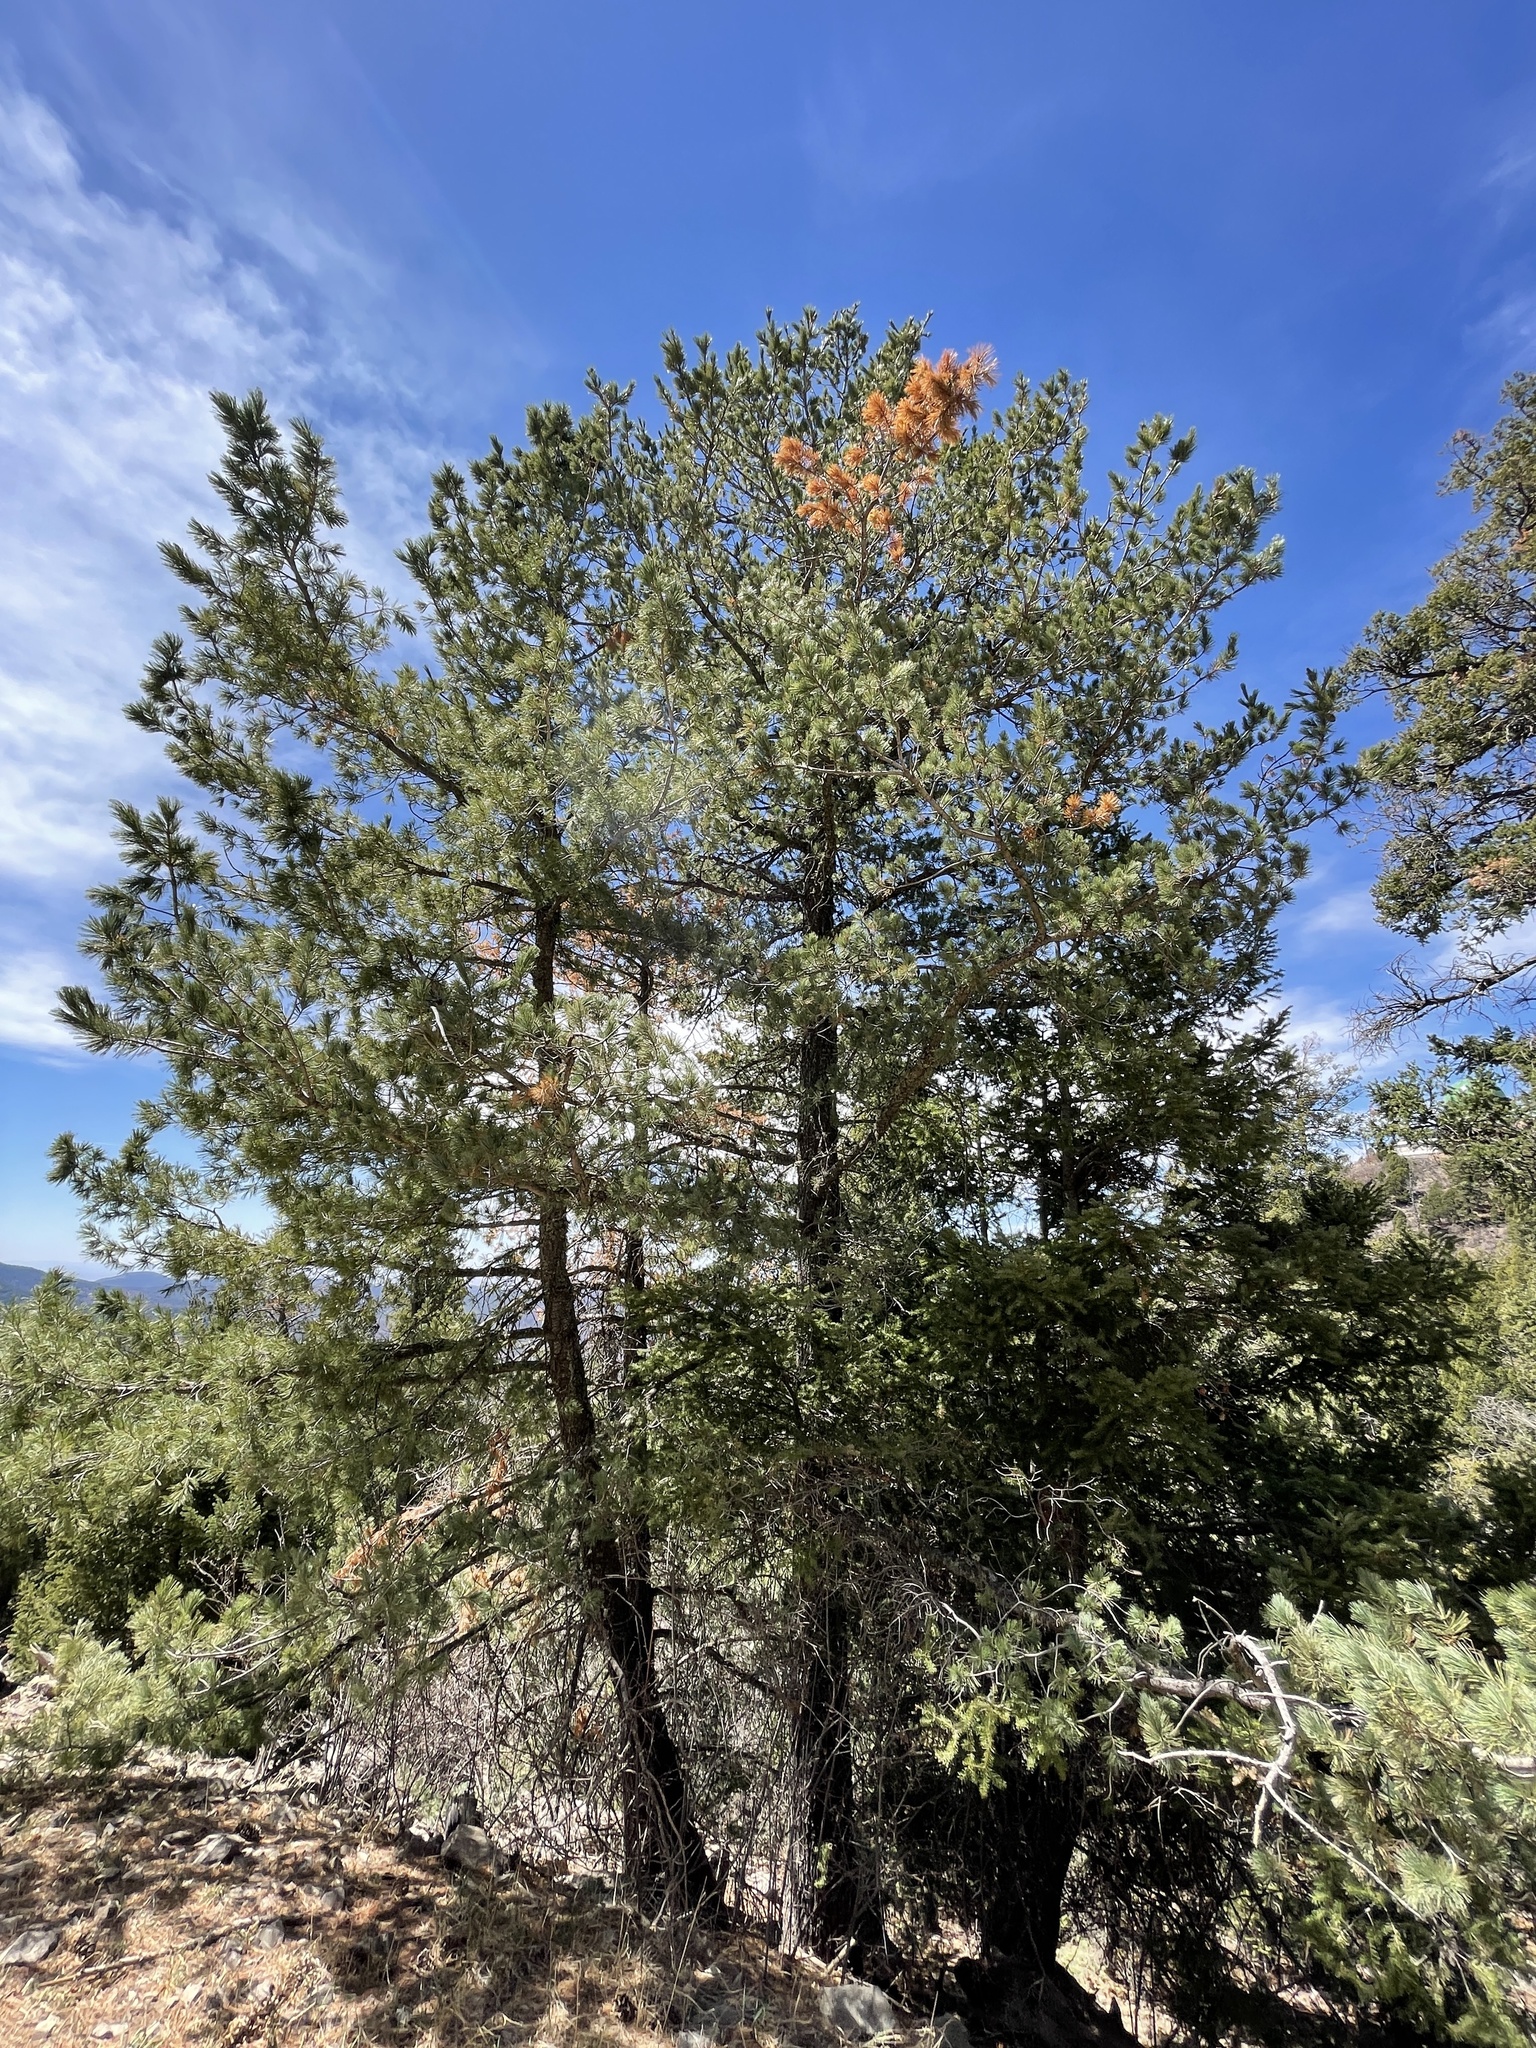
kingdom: Plantae
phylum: Tracheophyta
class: Pinopsida
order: Pinales
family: Pinaceae
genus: Pinus
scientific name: Pinus strobiformis
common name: Southwestern white pine
